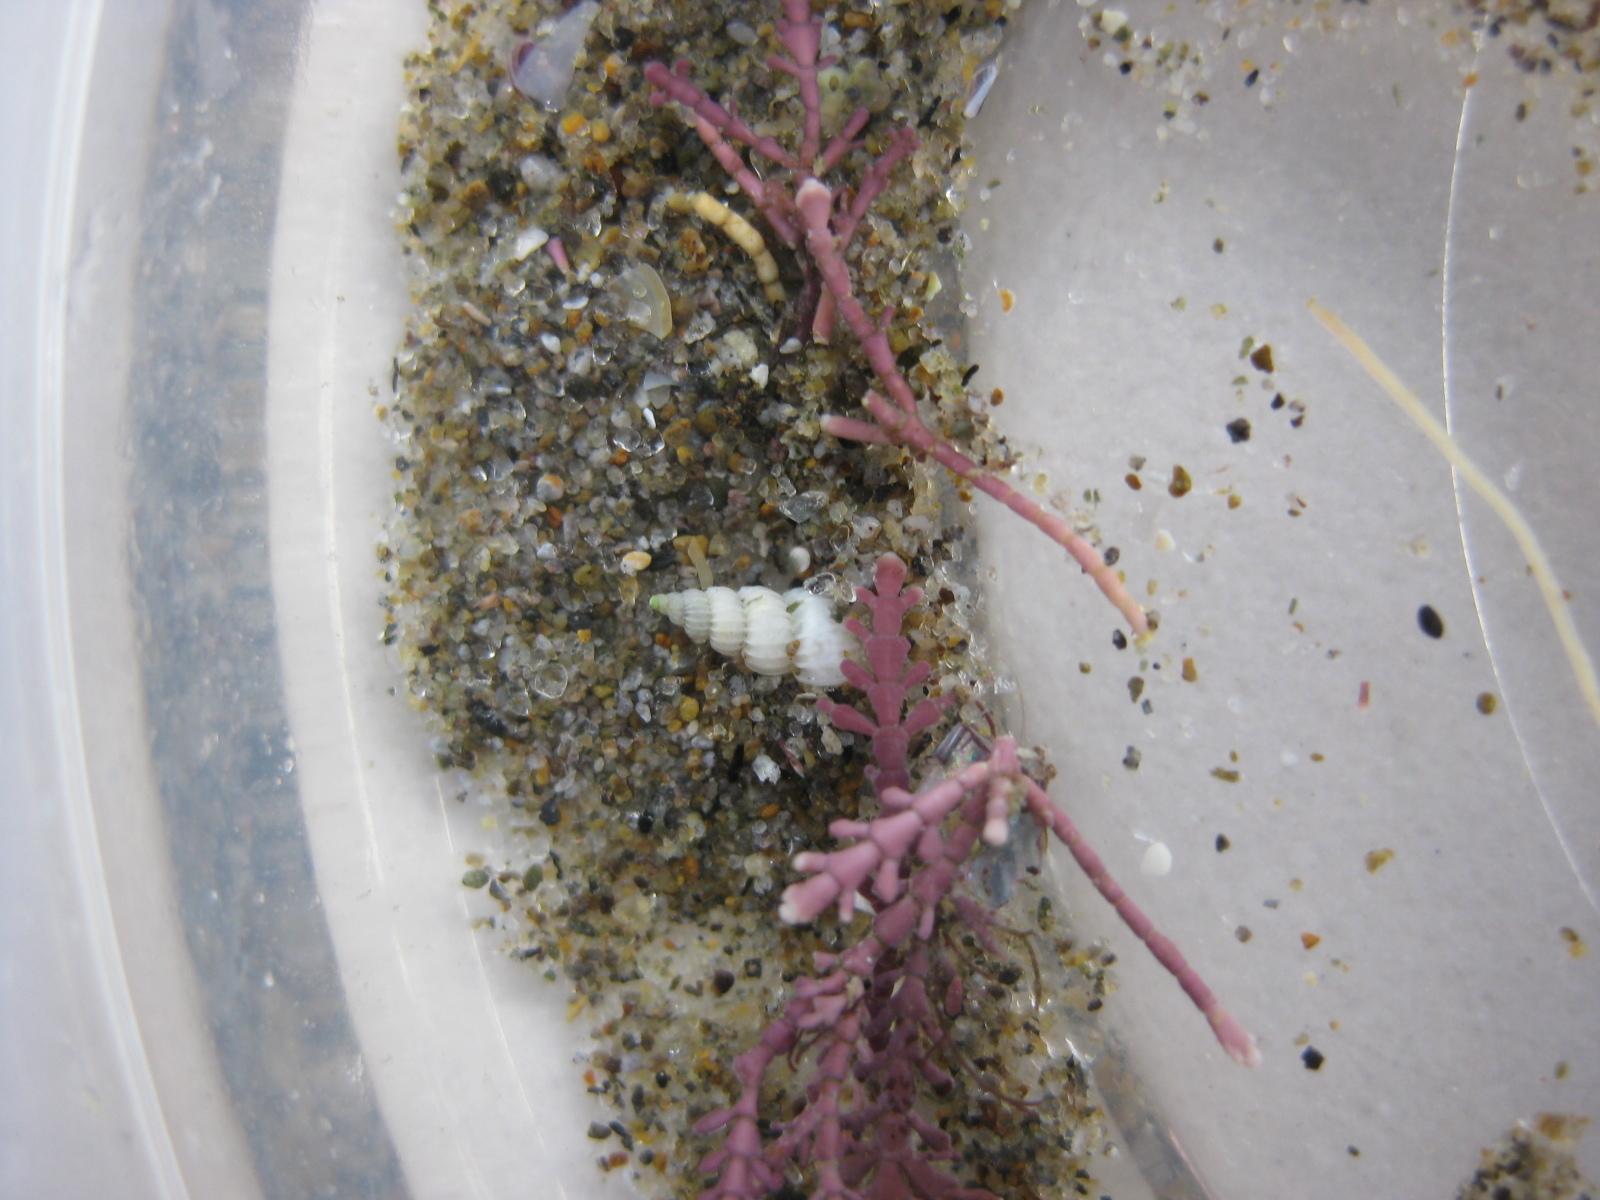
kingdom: Animalia
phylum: Mollusca
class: Gastropoda
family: Epitoniidae
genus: Epitonium
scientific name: Epitonium jukesianum
